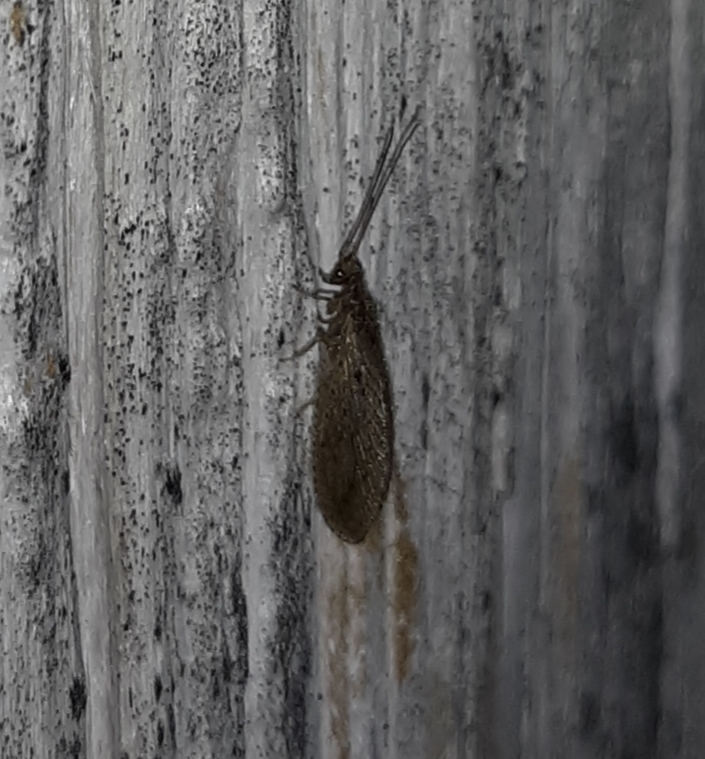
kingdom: Animalia
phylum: Arthropoda
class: Insecta
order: Neuroptera
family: Hemerobiidae
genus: Micromus
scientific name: Micromus subanticus
